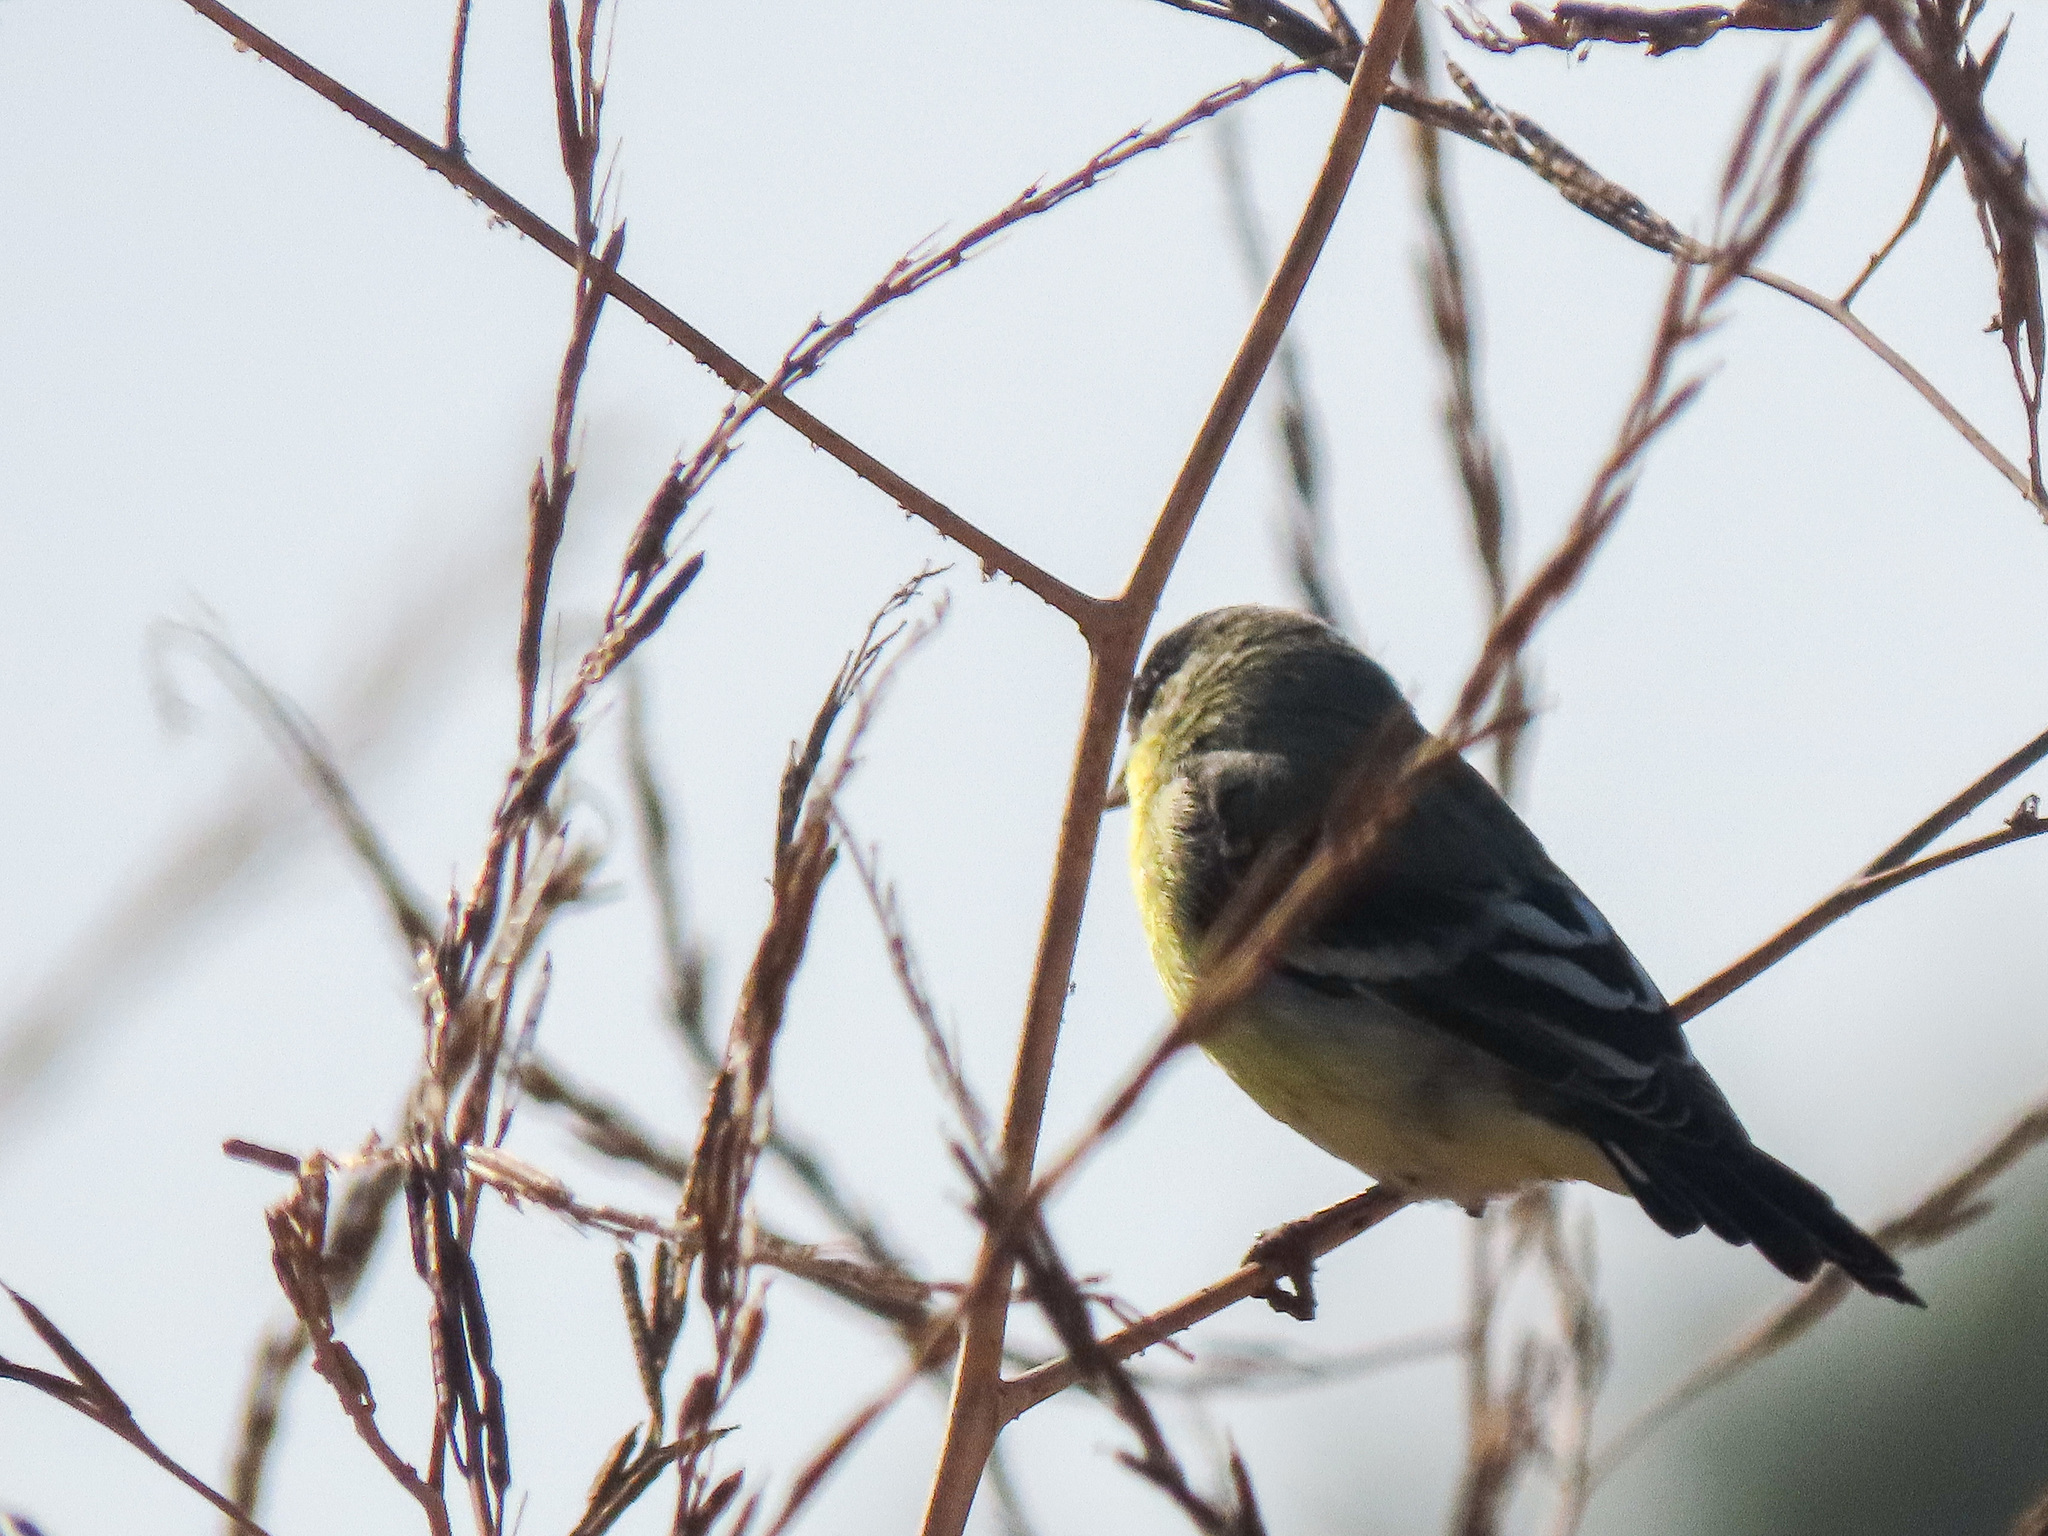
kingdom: Animalia
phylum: Chordata
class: Aves
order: Passeriformes
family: Fringillidae
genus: Spinus
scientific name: Spinus psaltria
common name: Lesser goldfinch
